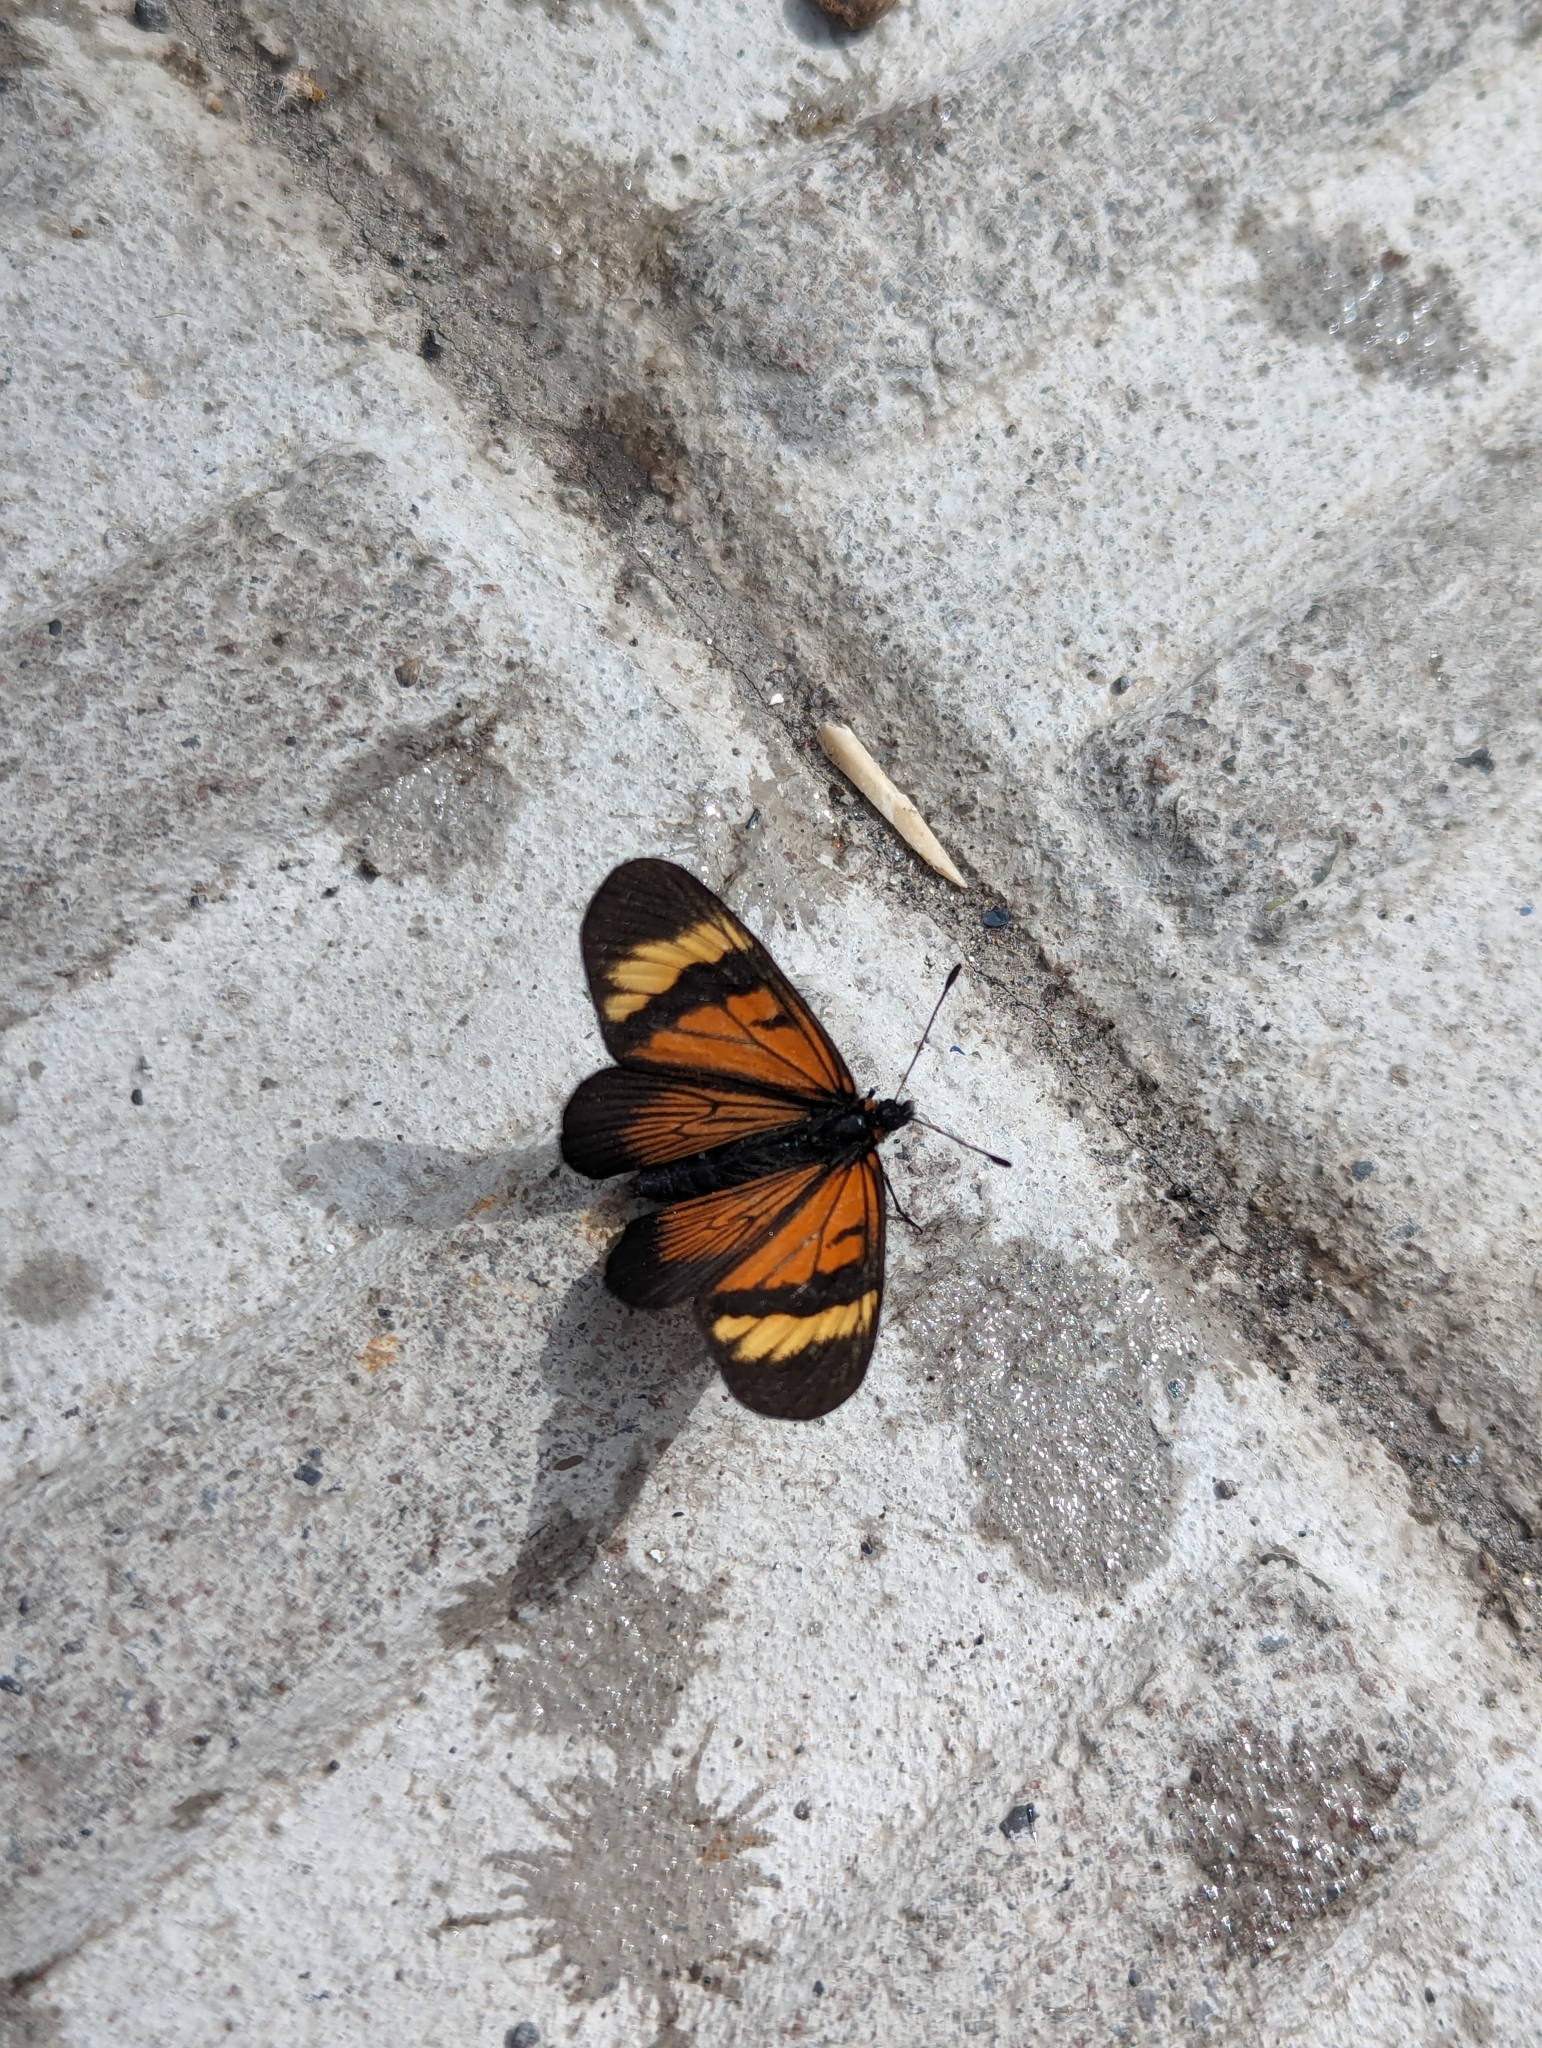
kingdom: Animalia
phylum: Arthropoda
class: Insecta
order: Lepidoptera
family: Nymphalidae
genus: Actinote
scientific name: Actinote anteas
